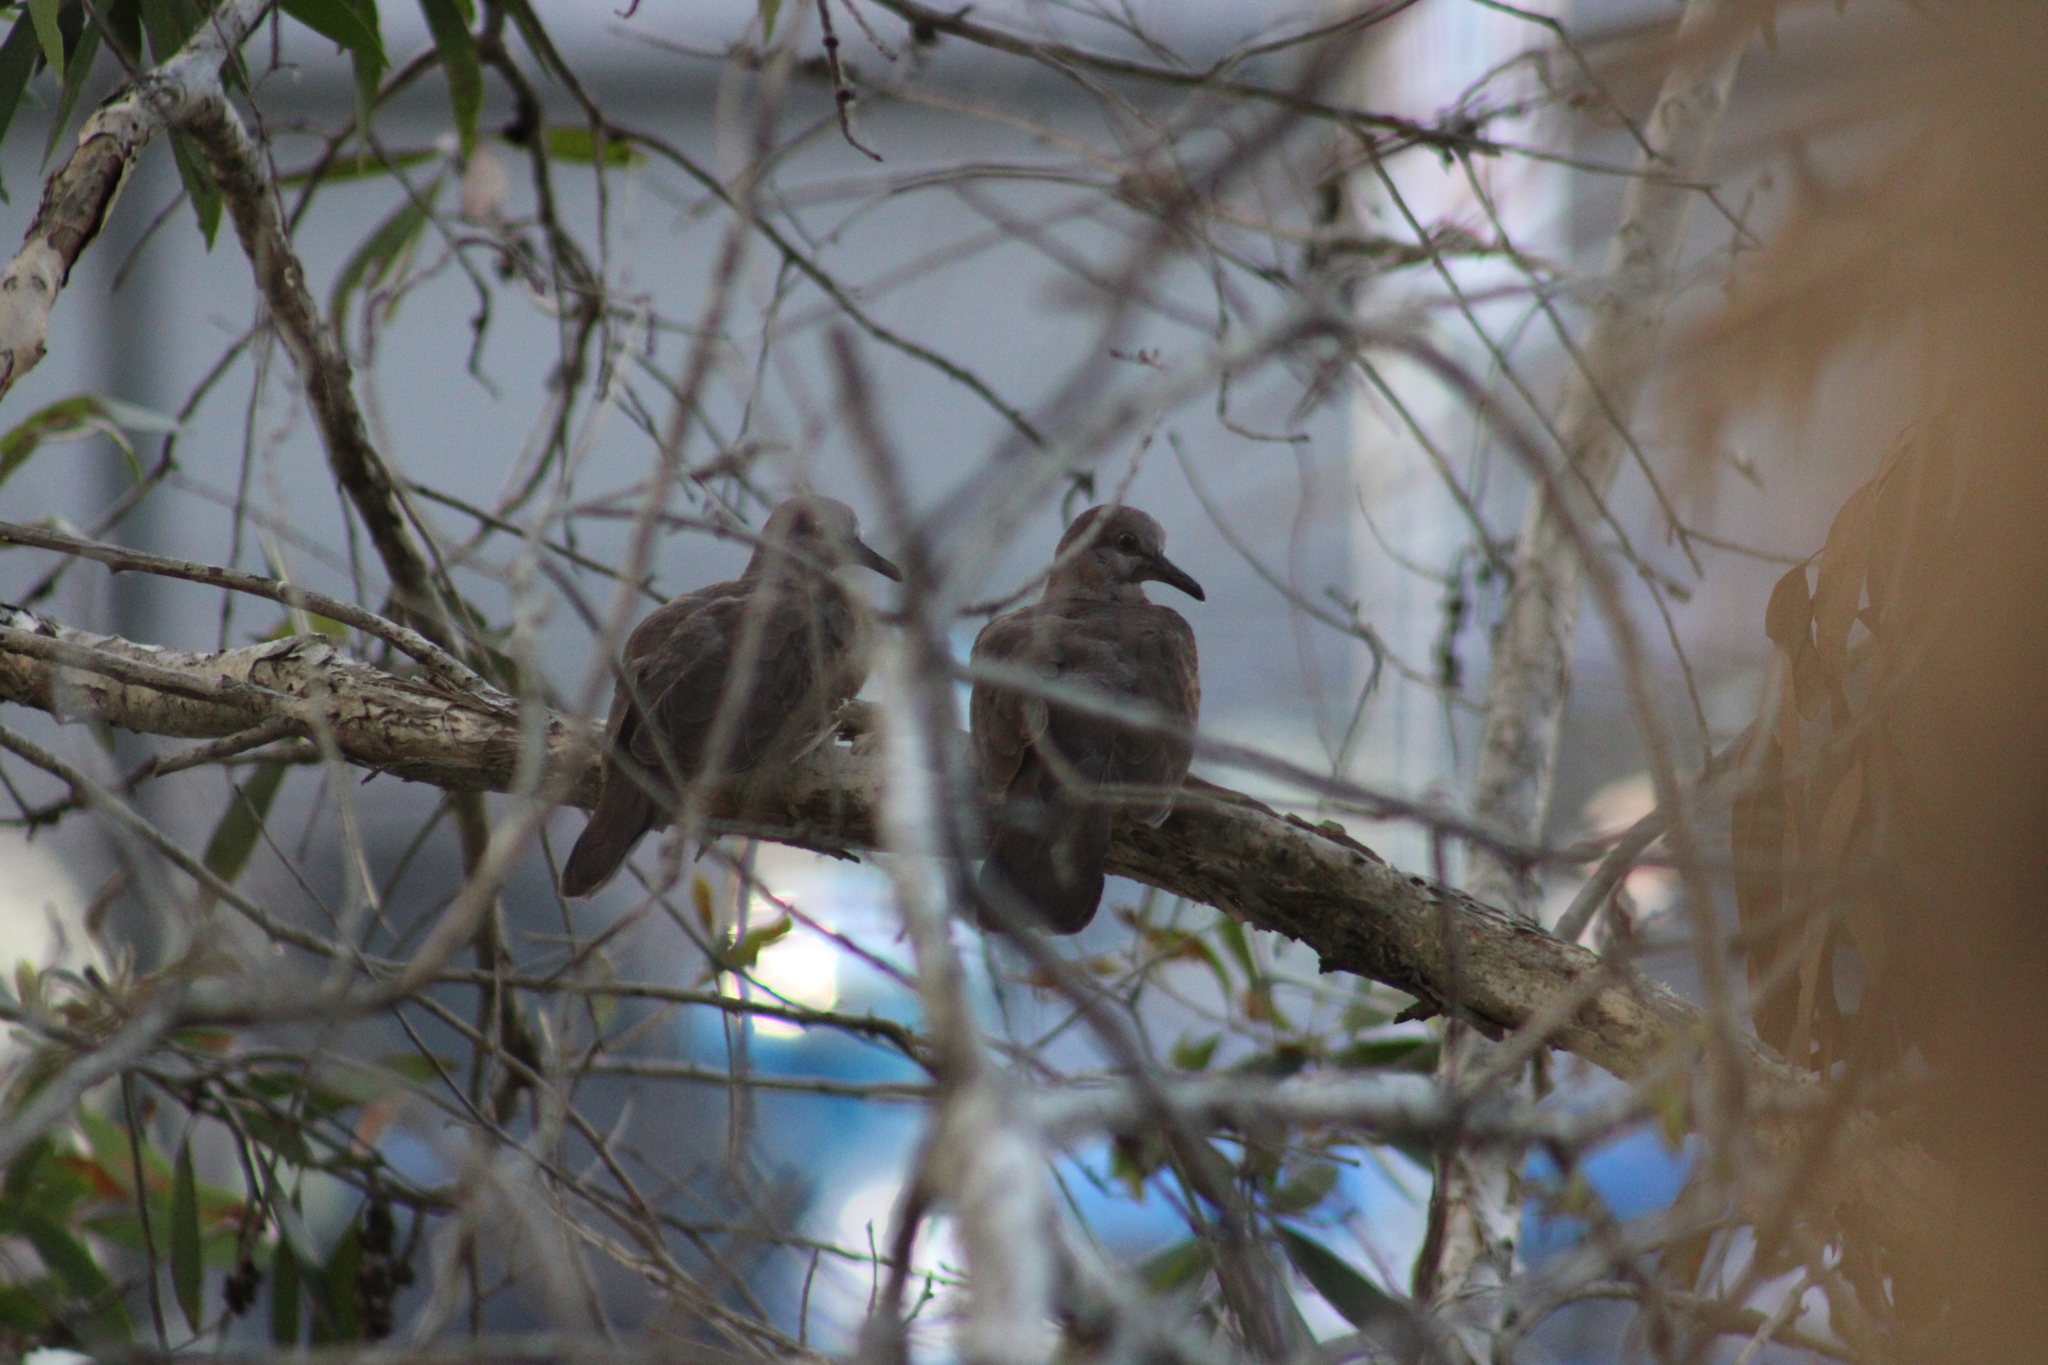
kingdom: Animalia
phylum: Chordata
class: Aves
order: Columbiformes
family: Columbidae
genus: Geopelia
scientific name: Geopelia humeralis
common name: Bar-shouldered dove
